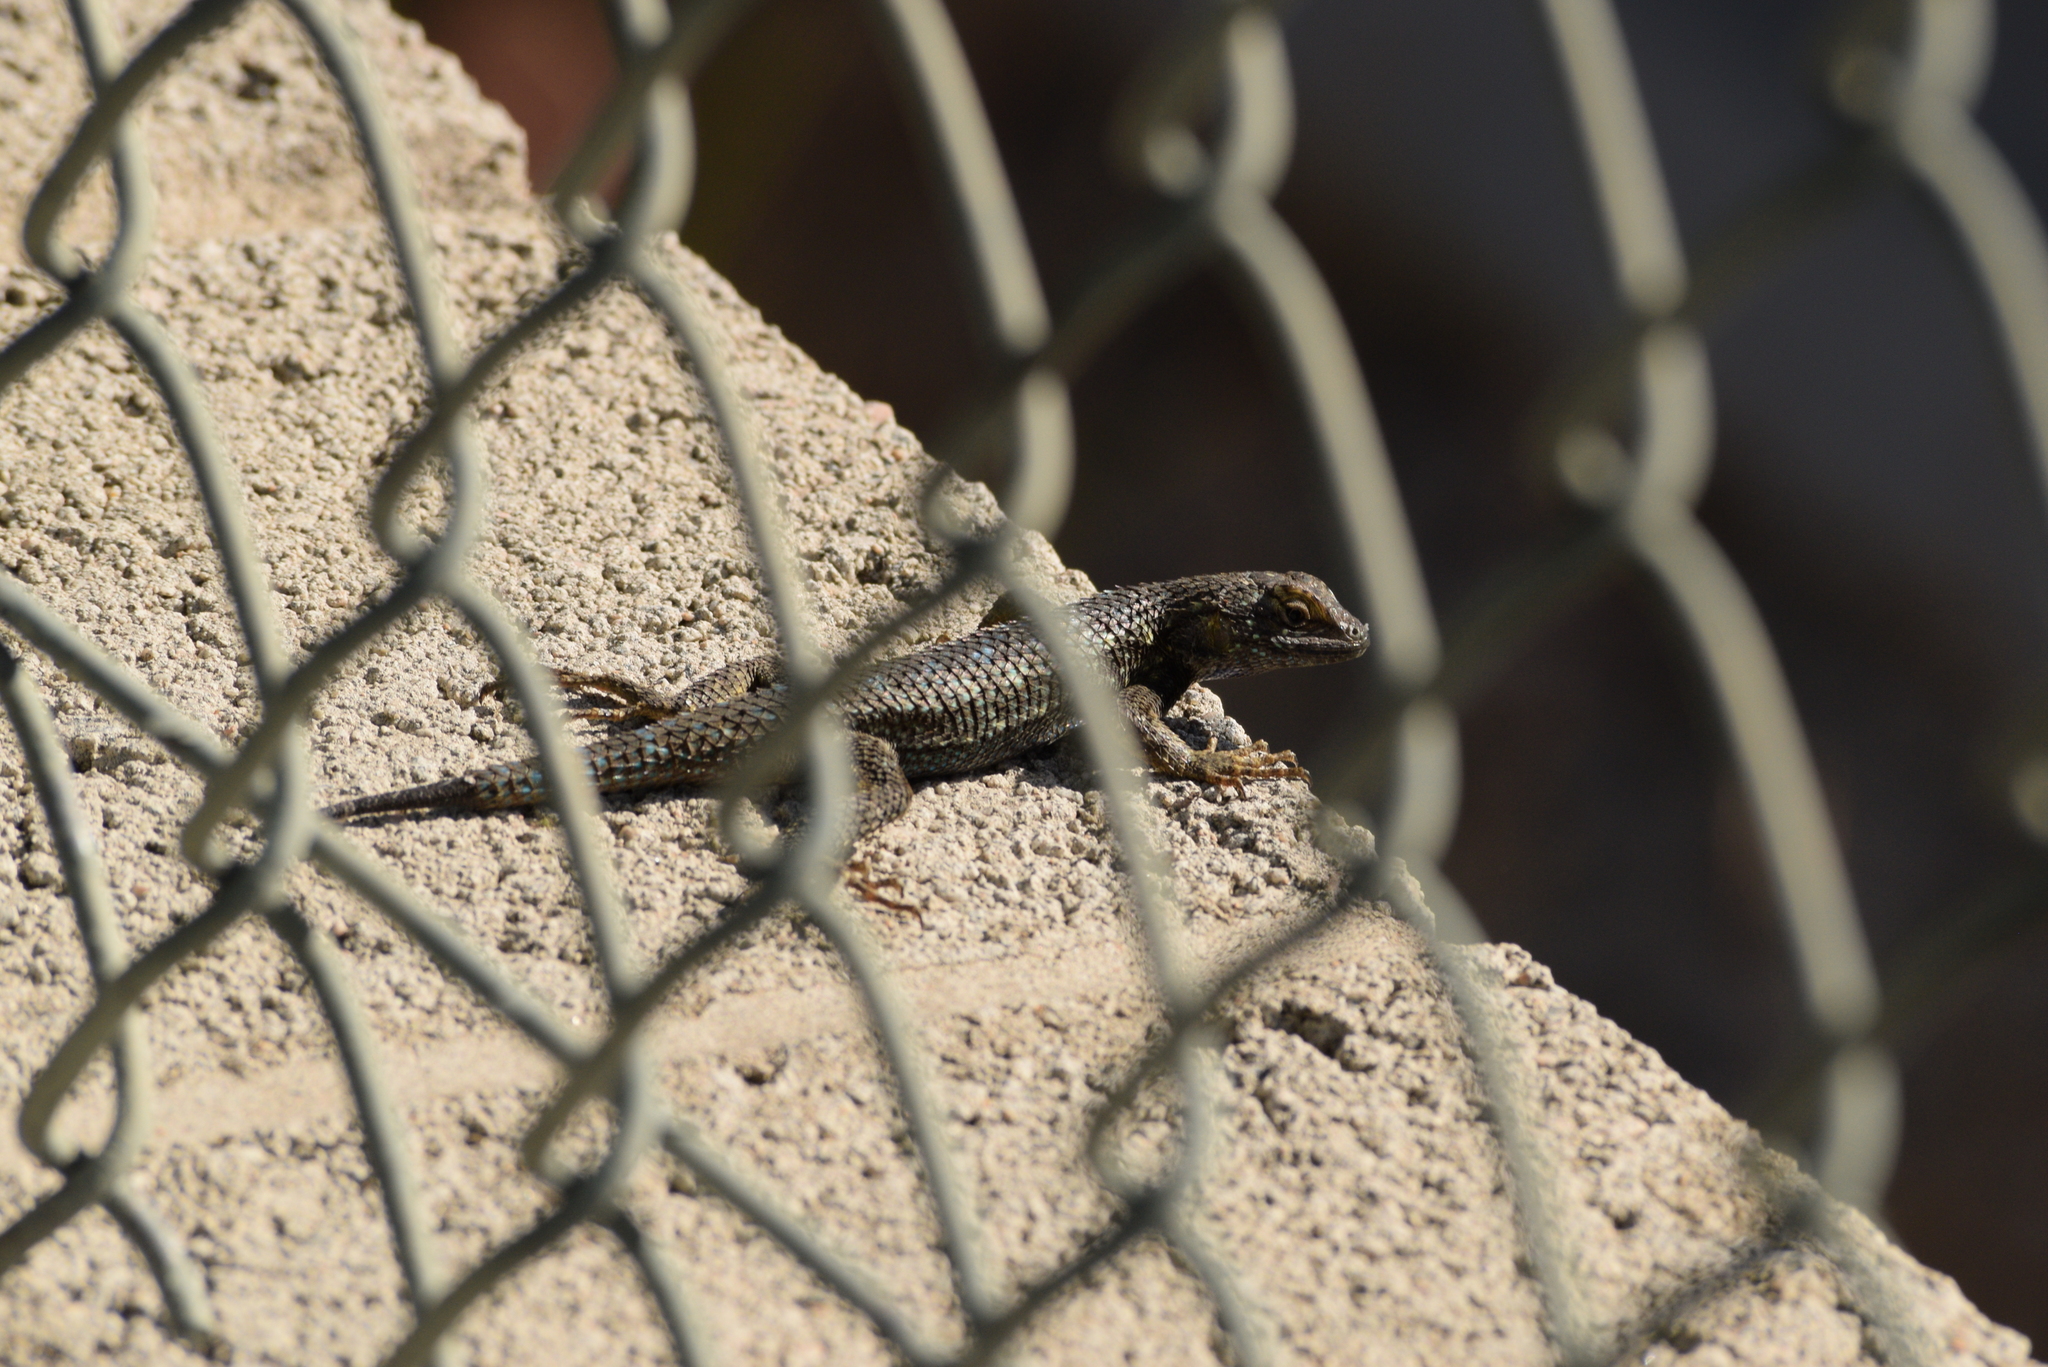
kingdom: Animalia
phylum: Chordata
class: Squamata
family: Phrynosomatidae
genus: Sceloporus
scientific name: Sceloporus occidentalis
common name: Western fence lizard
